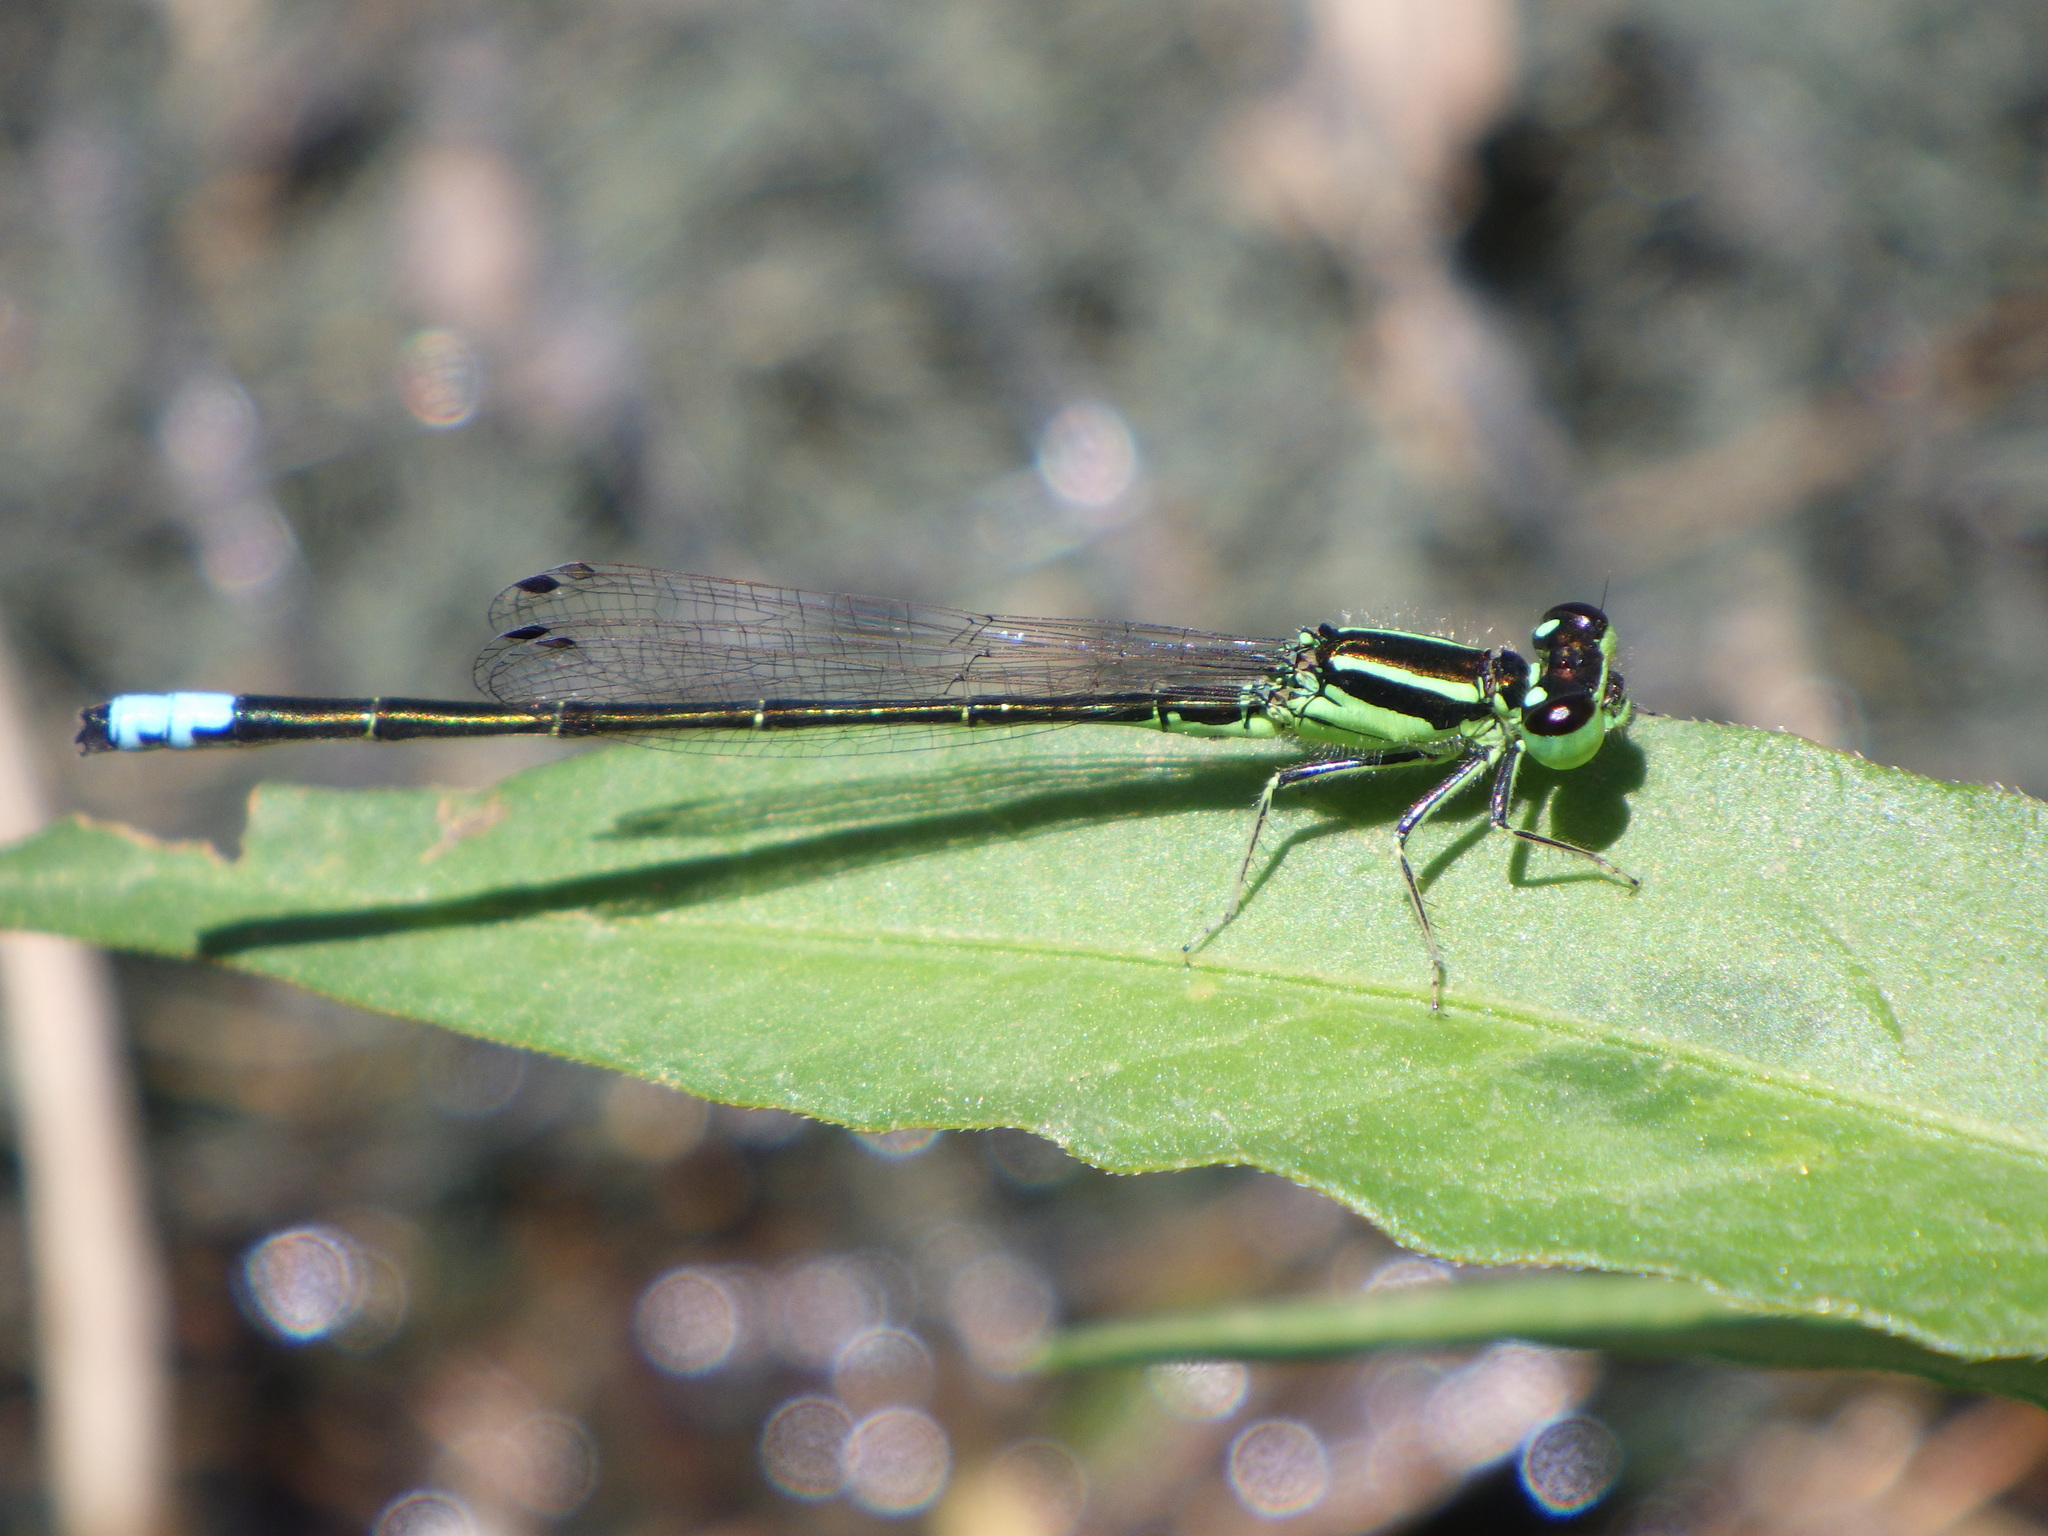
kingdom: Animalia
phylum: Arthropoda
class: Insecta
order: Odonata
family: Coenagrionidae
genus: Ischnura
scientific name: Ischnura verticalis
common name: Eastern forktail
